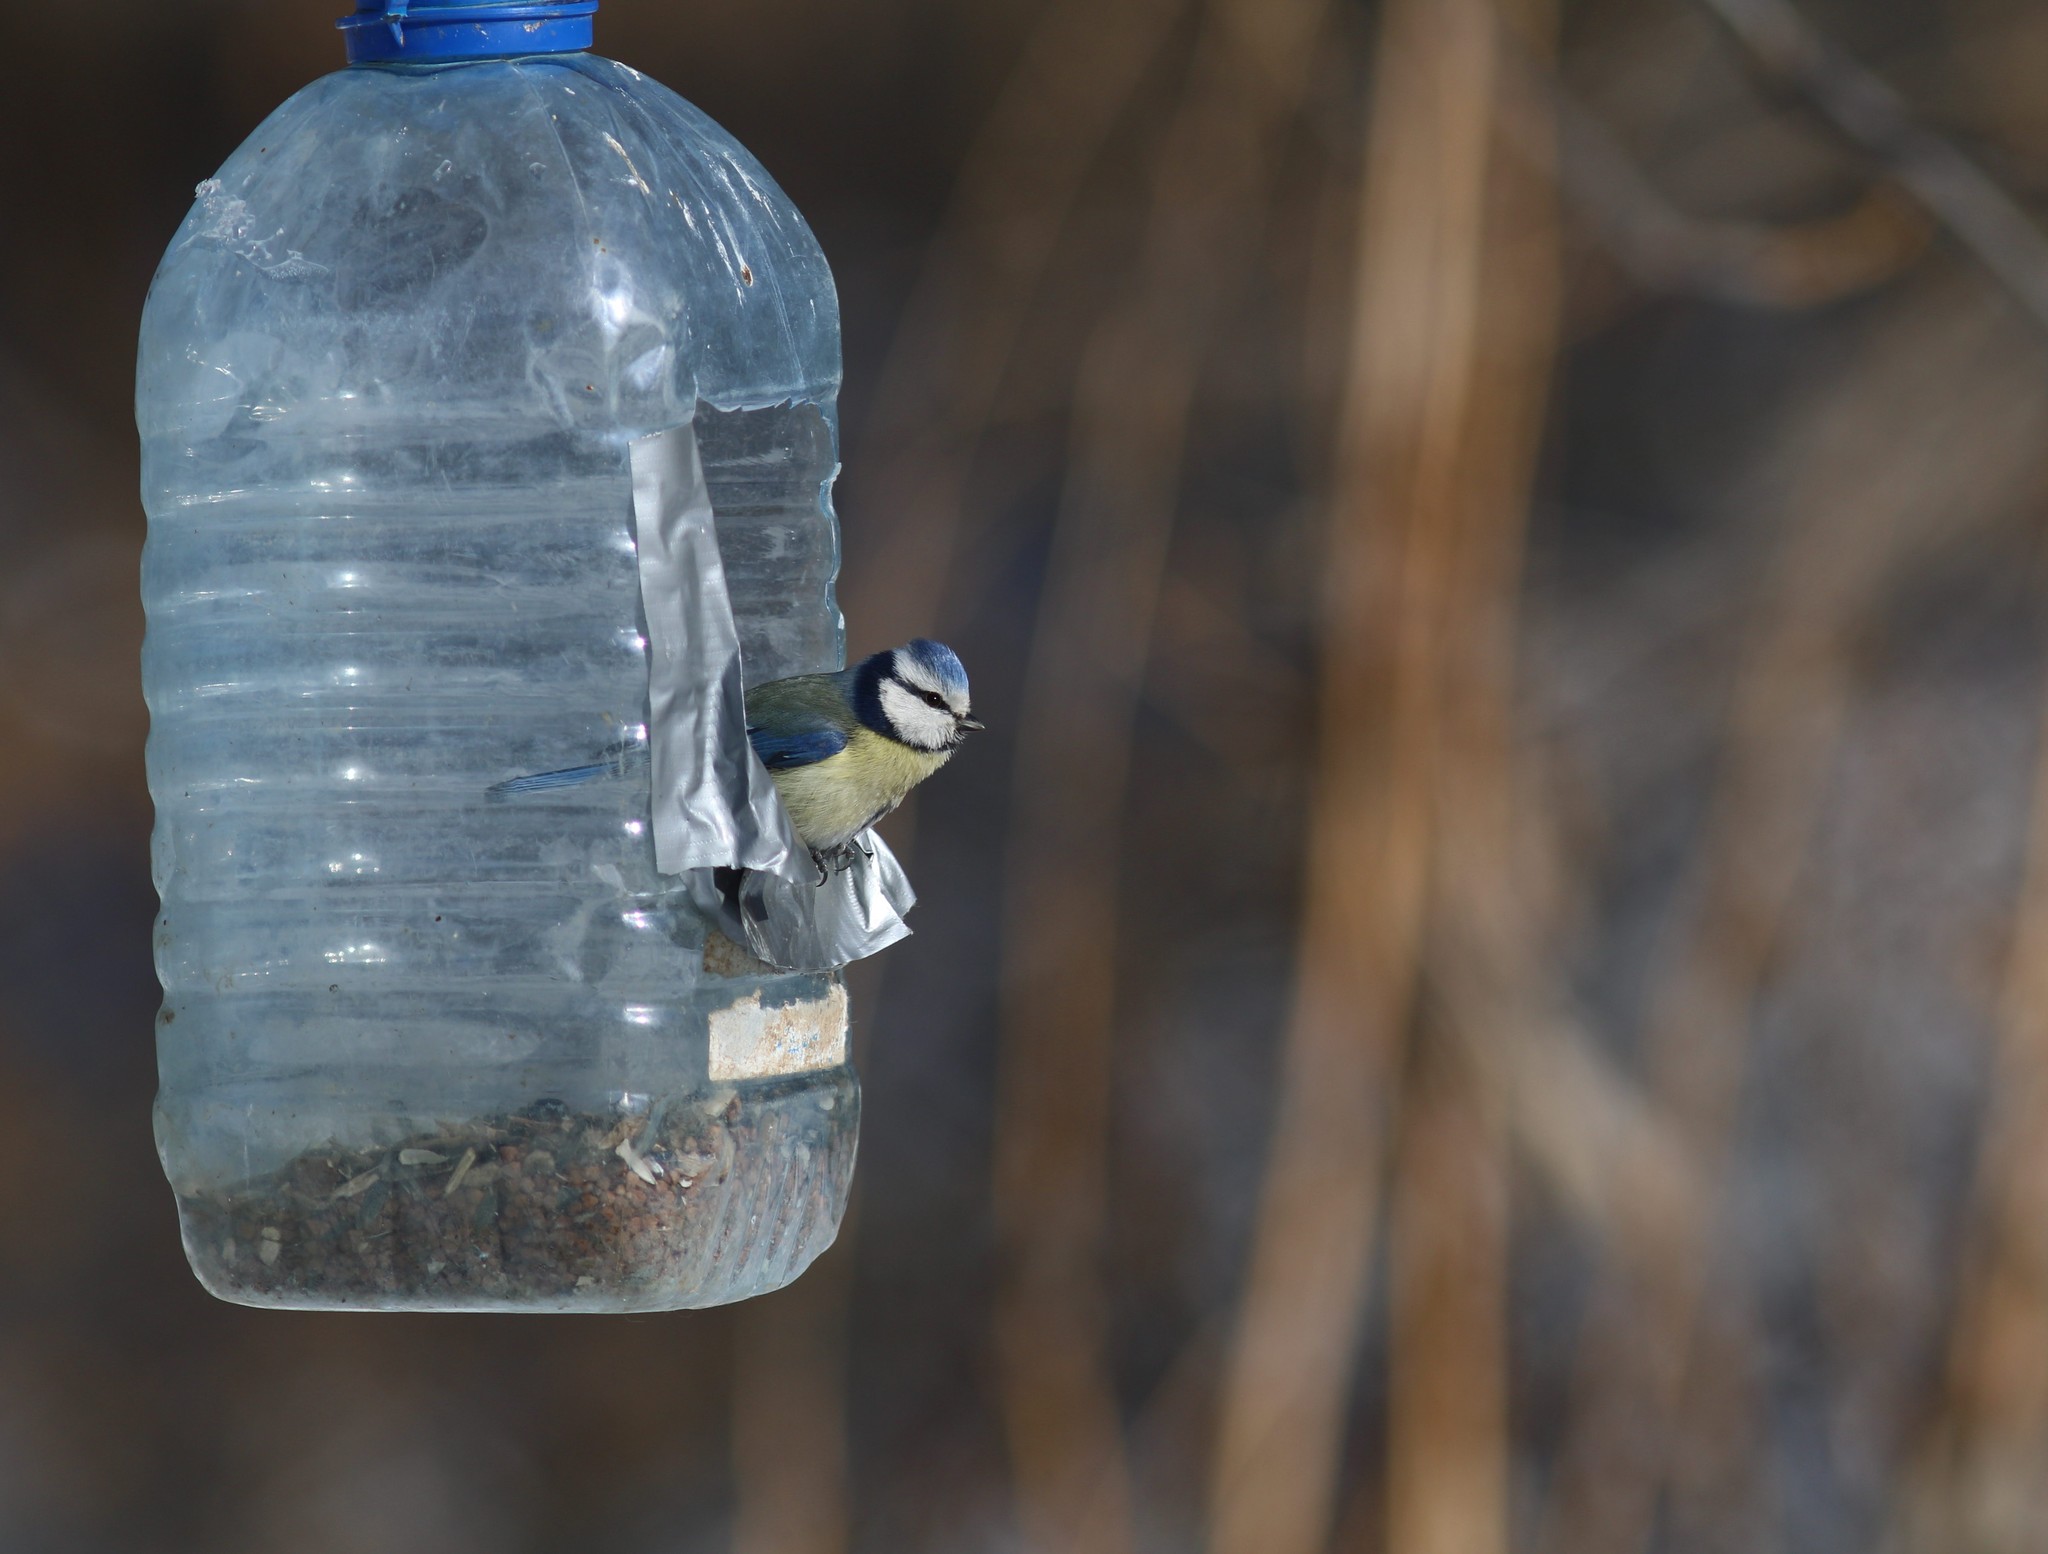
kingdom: Animalia
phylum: Chordata
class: Aves
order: Passeriformes
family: Paridae
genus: Cyanistes
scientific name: Cyanistes caeruleus
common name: Eurasian blue tit
